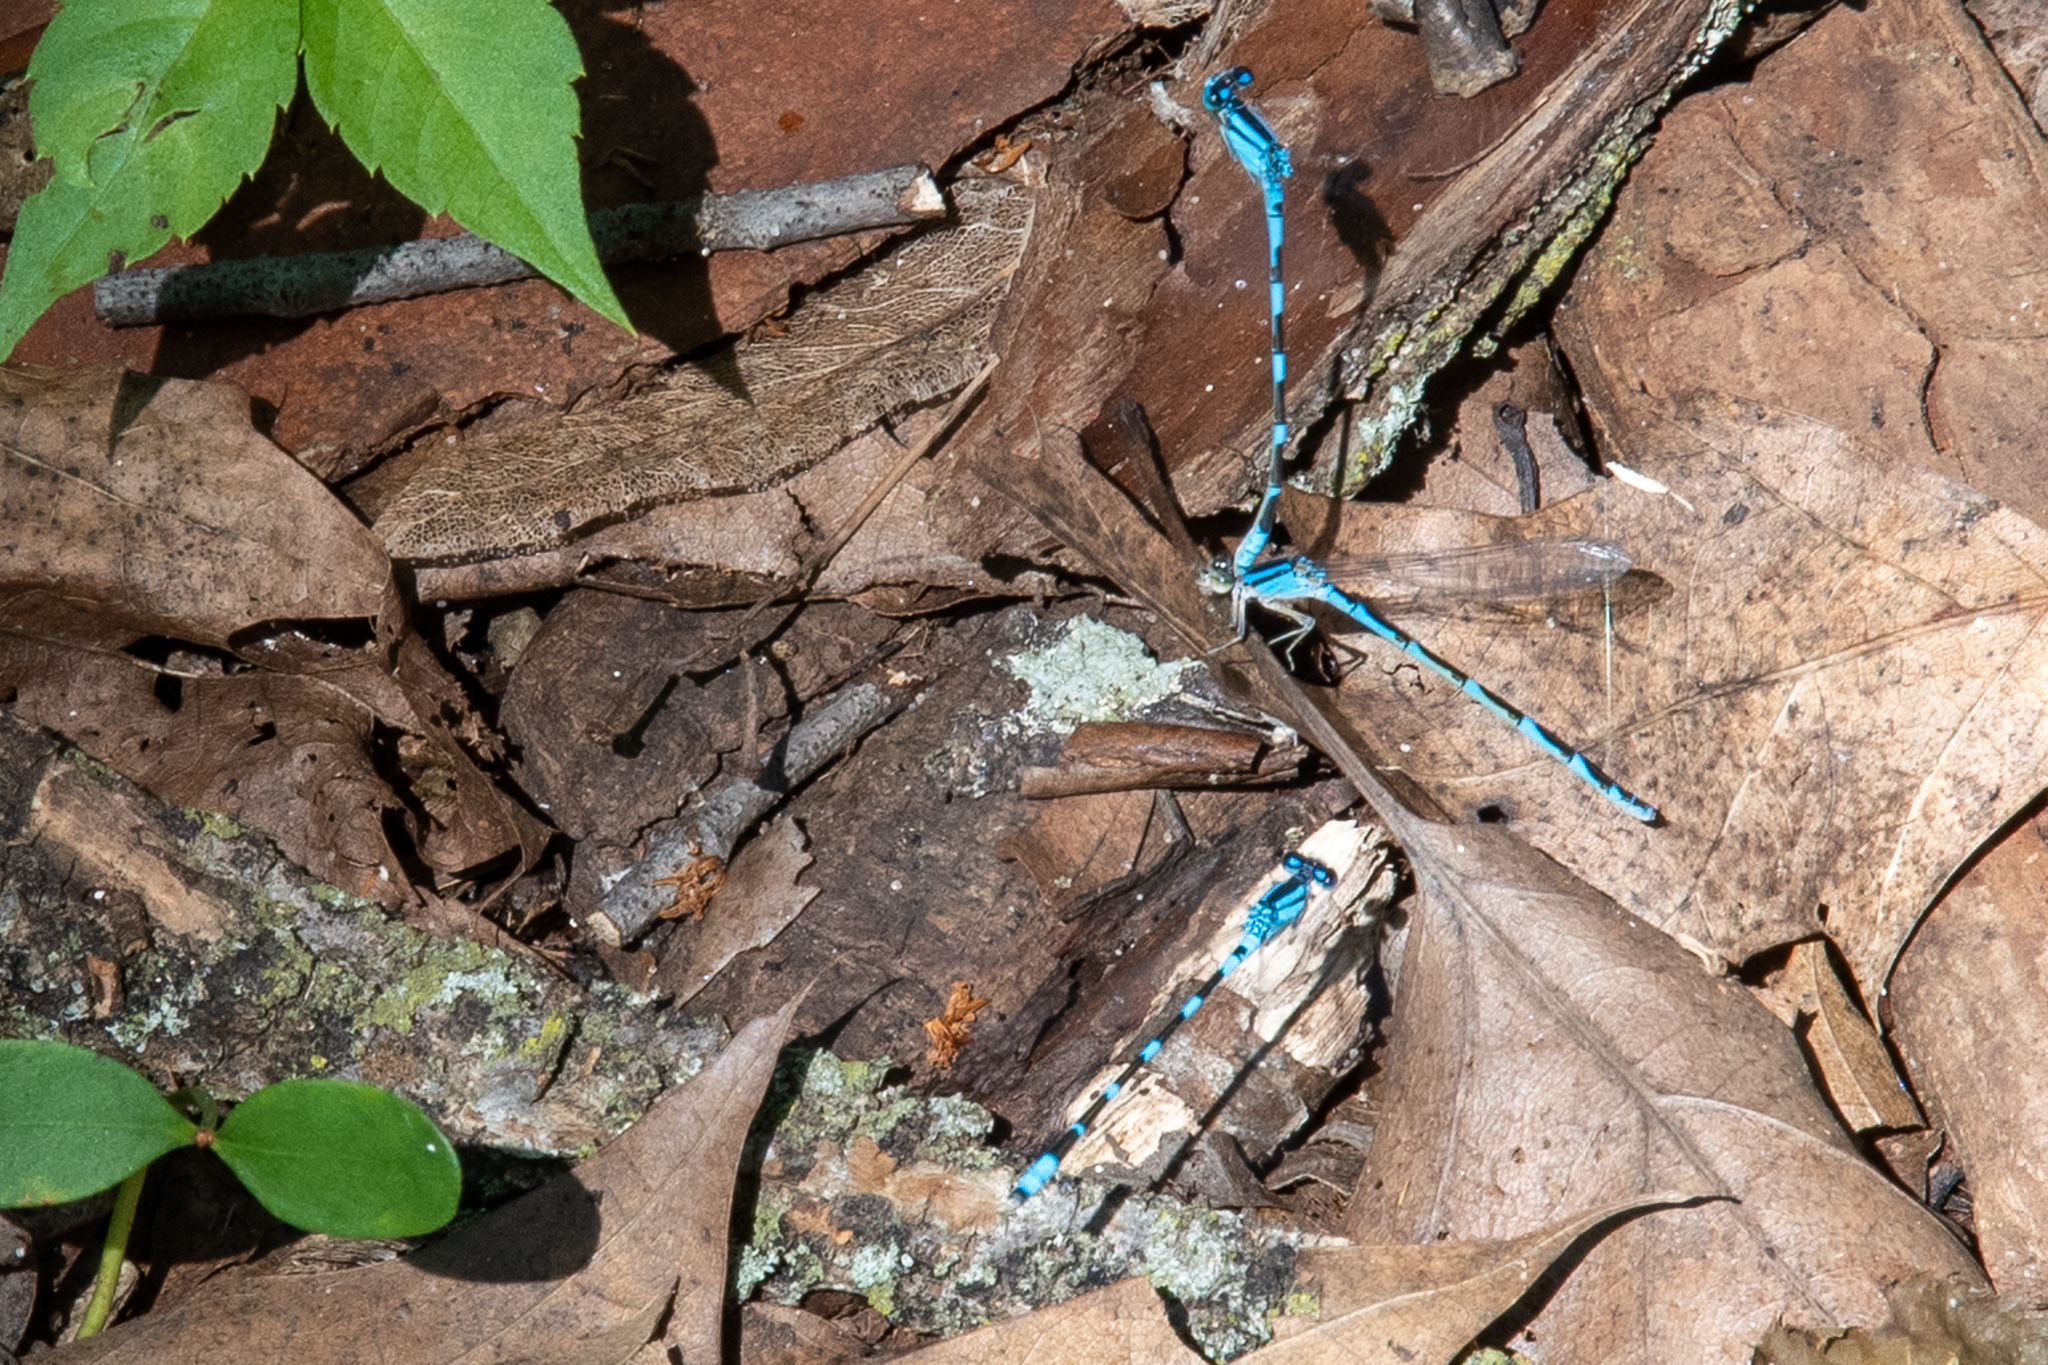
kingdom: Animalia
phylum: Arthropoda
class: Insecta
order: Odonata
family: Coenagrionidae
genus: Enallagma
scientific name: Enallagma carunculatum
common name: Tule bluet
